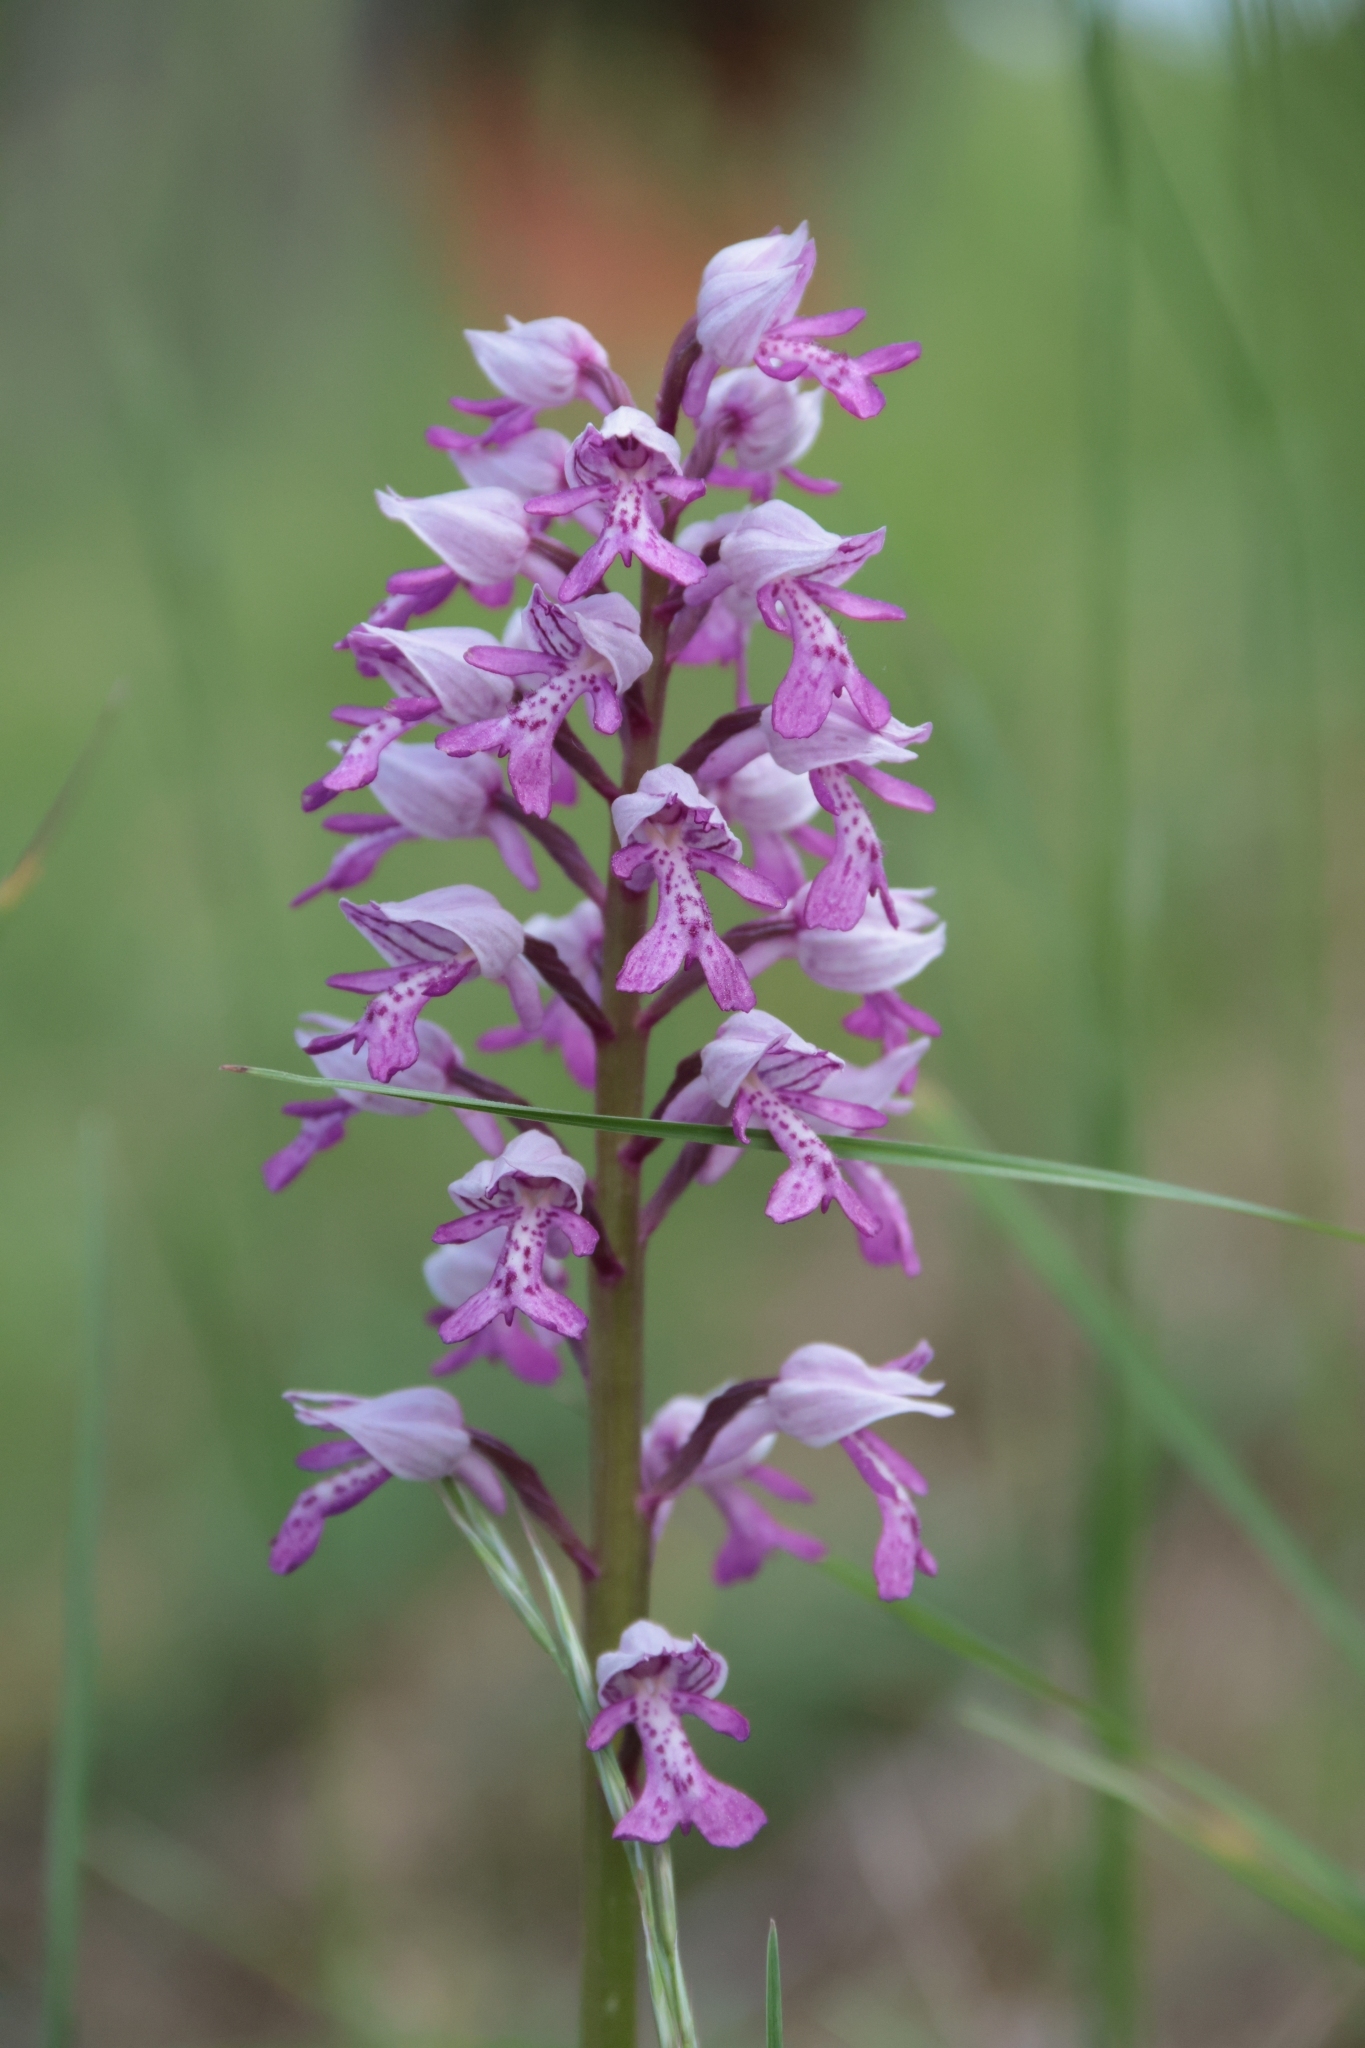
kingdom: Plantae
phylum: Tracheophyta
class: Liliopsida
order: Asparagales
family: Orchidaceae
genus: Orchis
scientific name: Orchis militaris
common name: Military orchid
